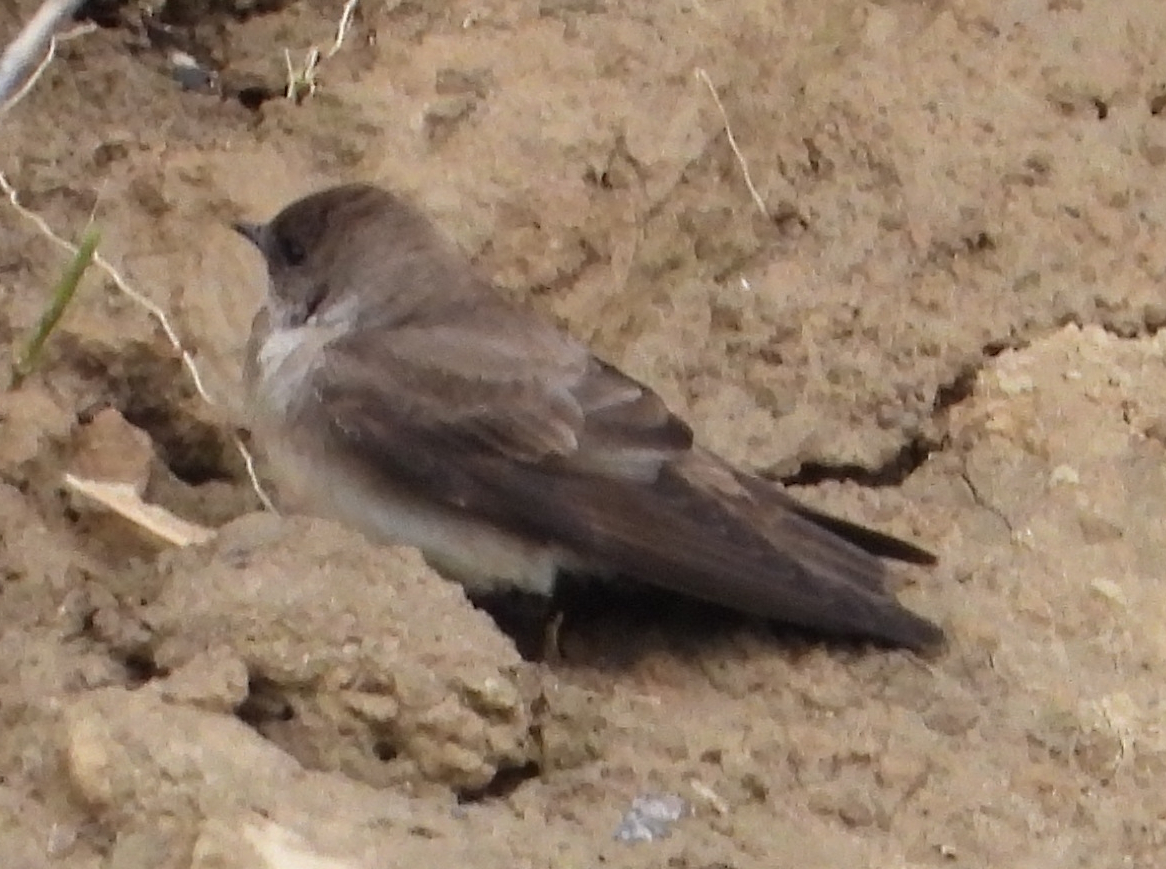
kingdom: Animalia
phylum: Chordata
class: Aves
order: Passeriformes
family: Hirundinidae
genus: Stelgidopteryx
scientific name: Stelgidopteryx serripennis
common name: Northern rough-winged swallow
